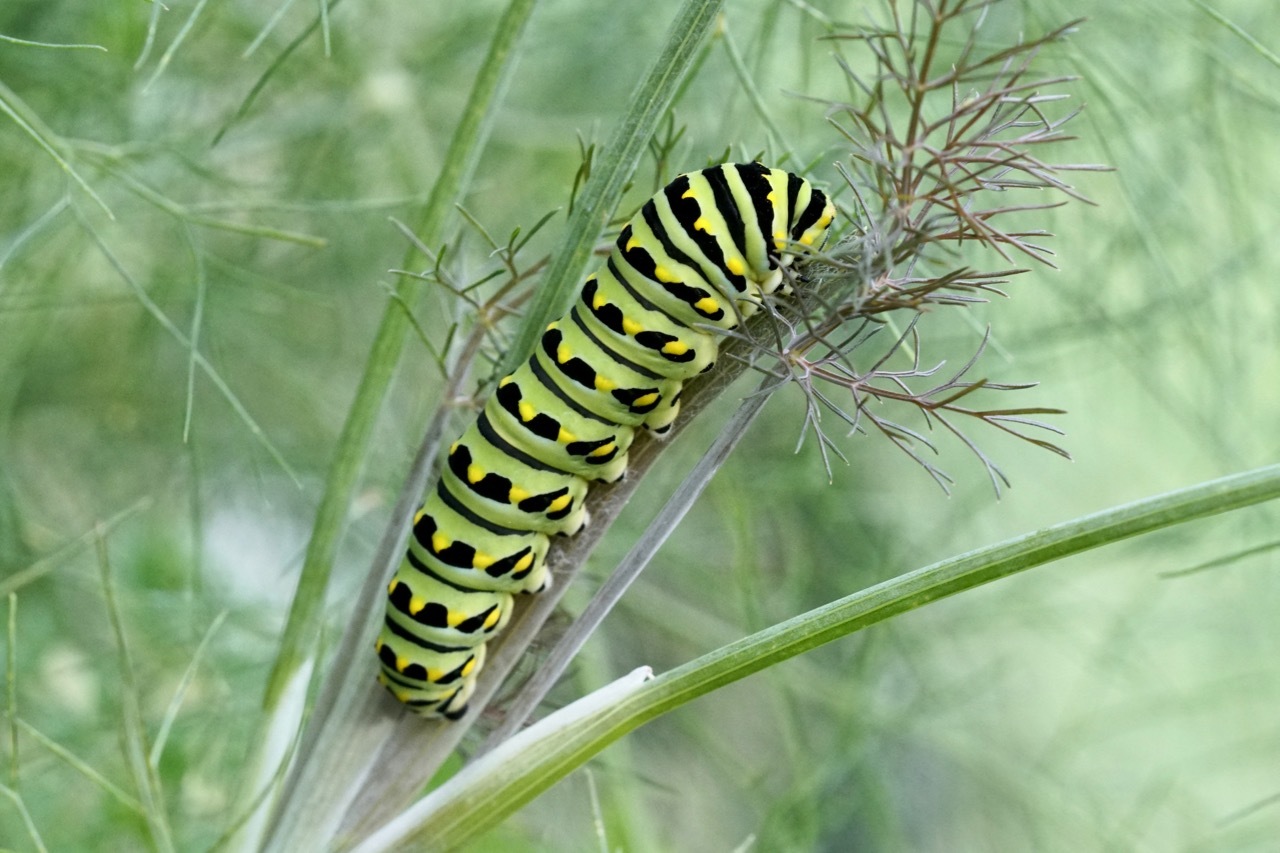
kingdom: Animalia
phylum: Arthropoda
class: Insecta
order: Lepidoptera
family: Papilionidae
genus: Papilio
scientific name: Papilio polyxenes
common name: Black swallowtail
